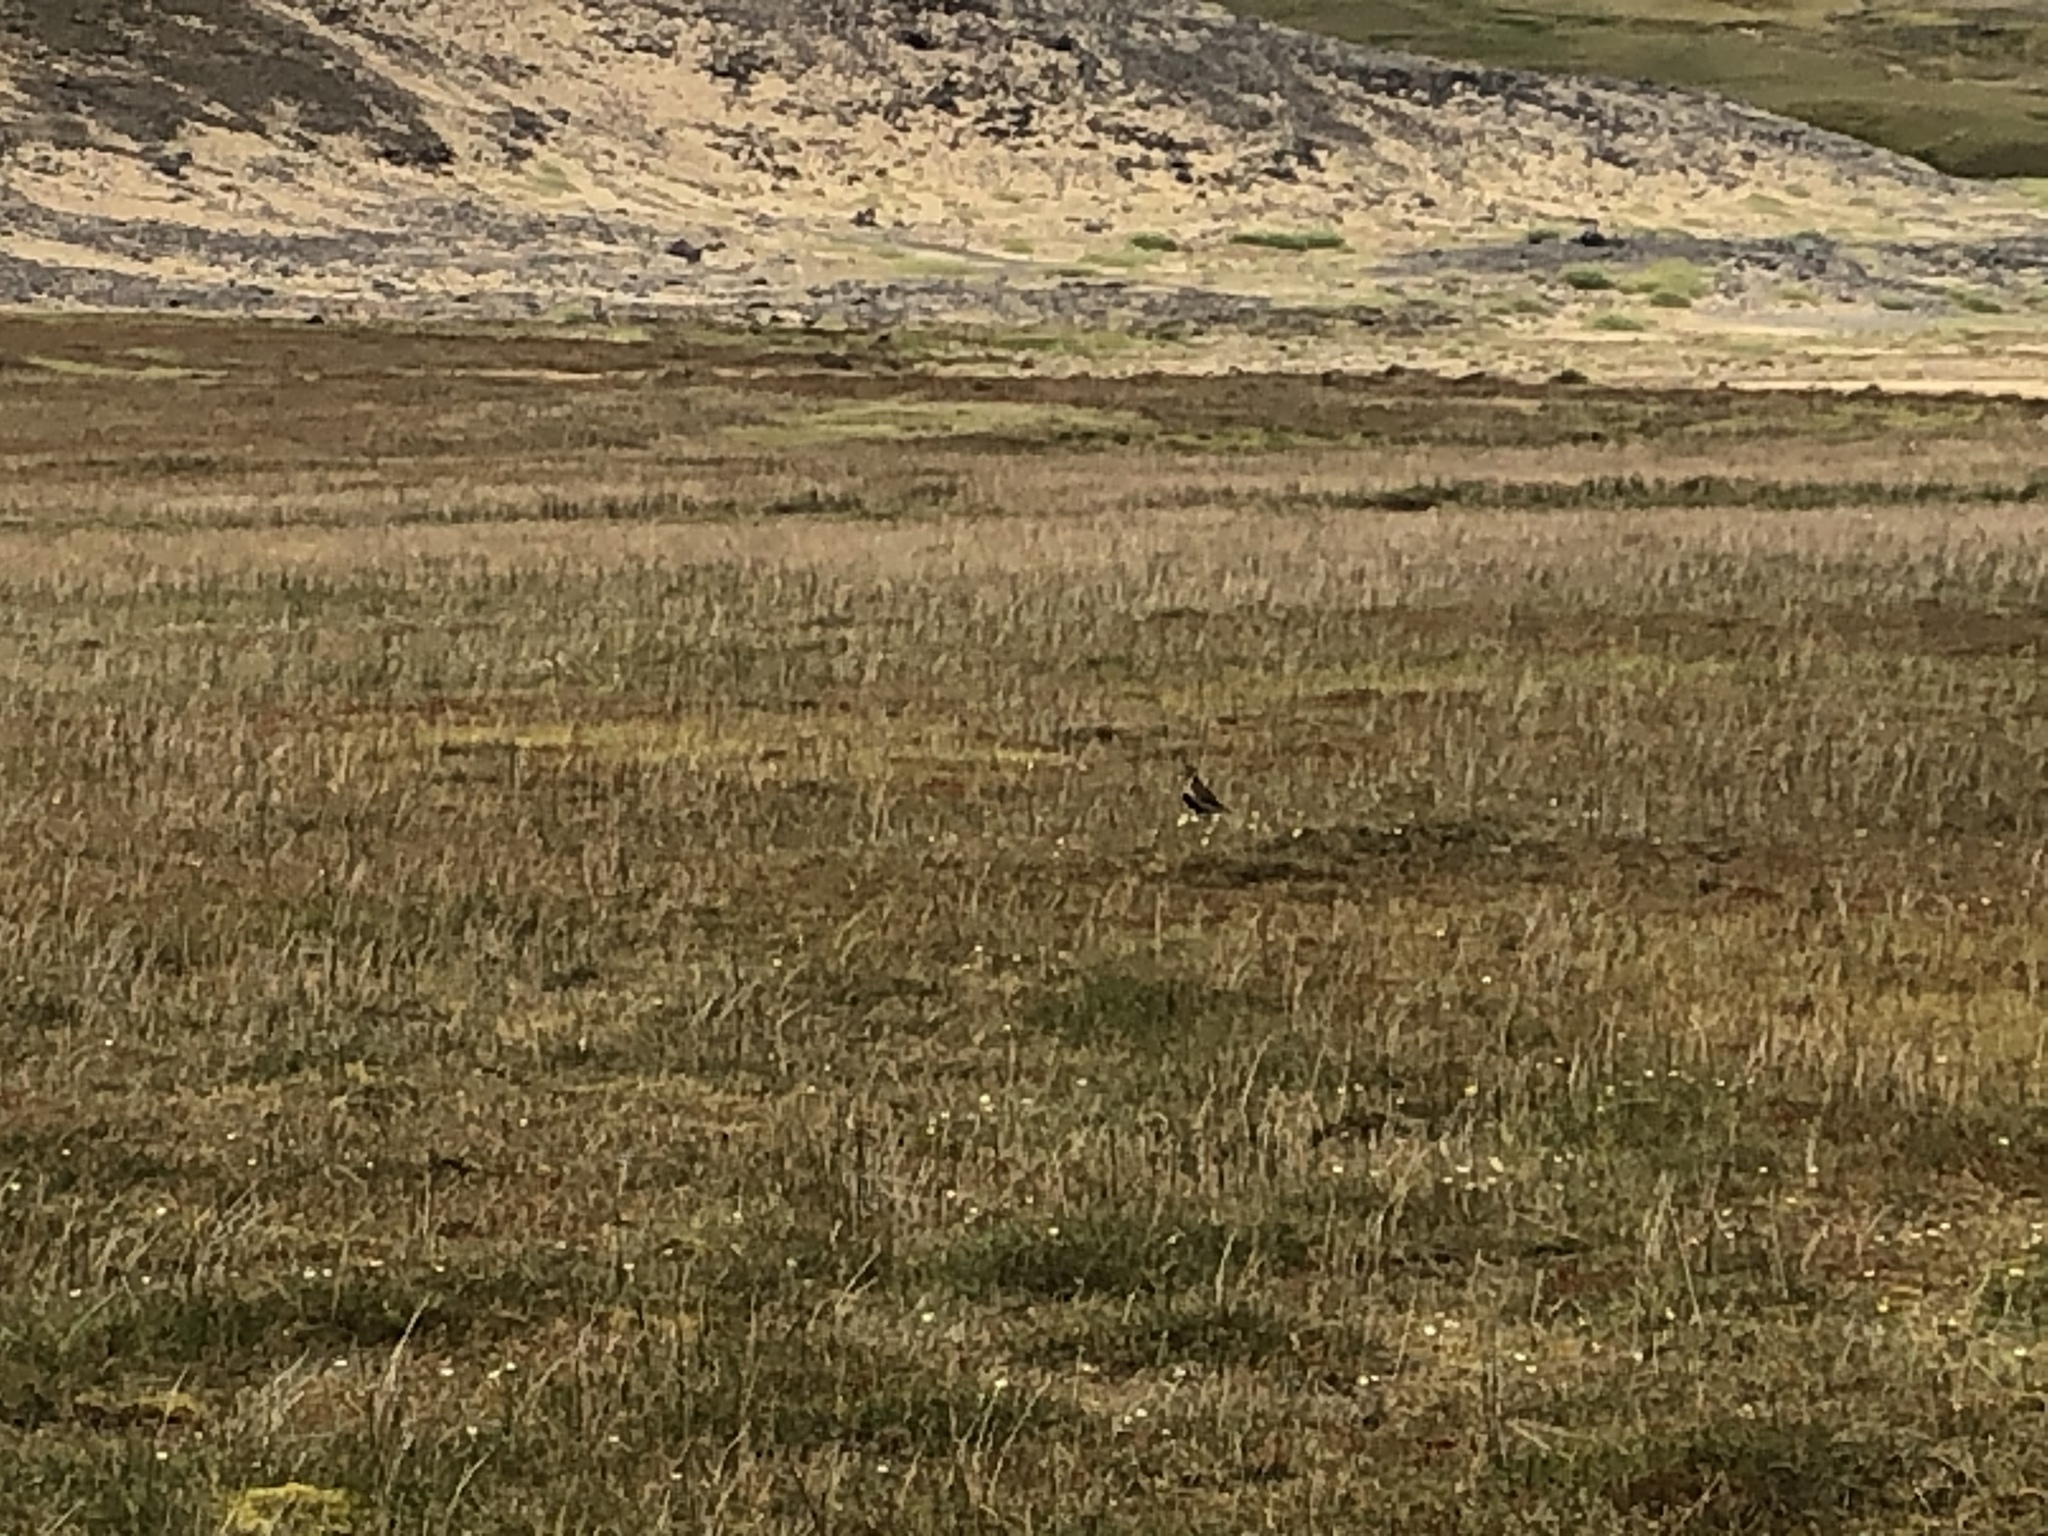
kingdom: Animalia
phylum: Chordata
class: Aves
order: Charadriiformes
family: Charadriidae
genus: Pluvialis
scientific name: Pluvialis apricaria
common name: European golden plover
